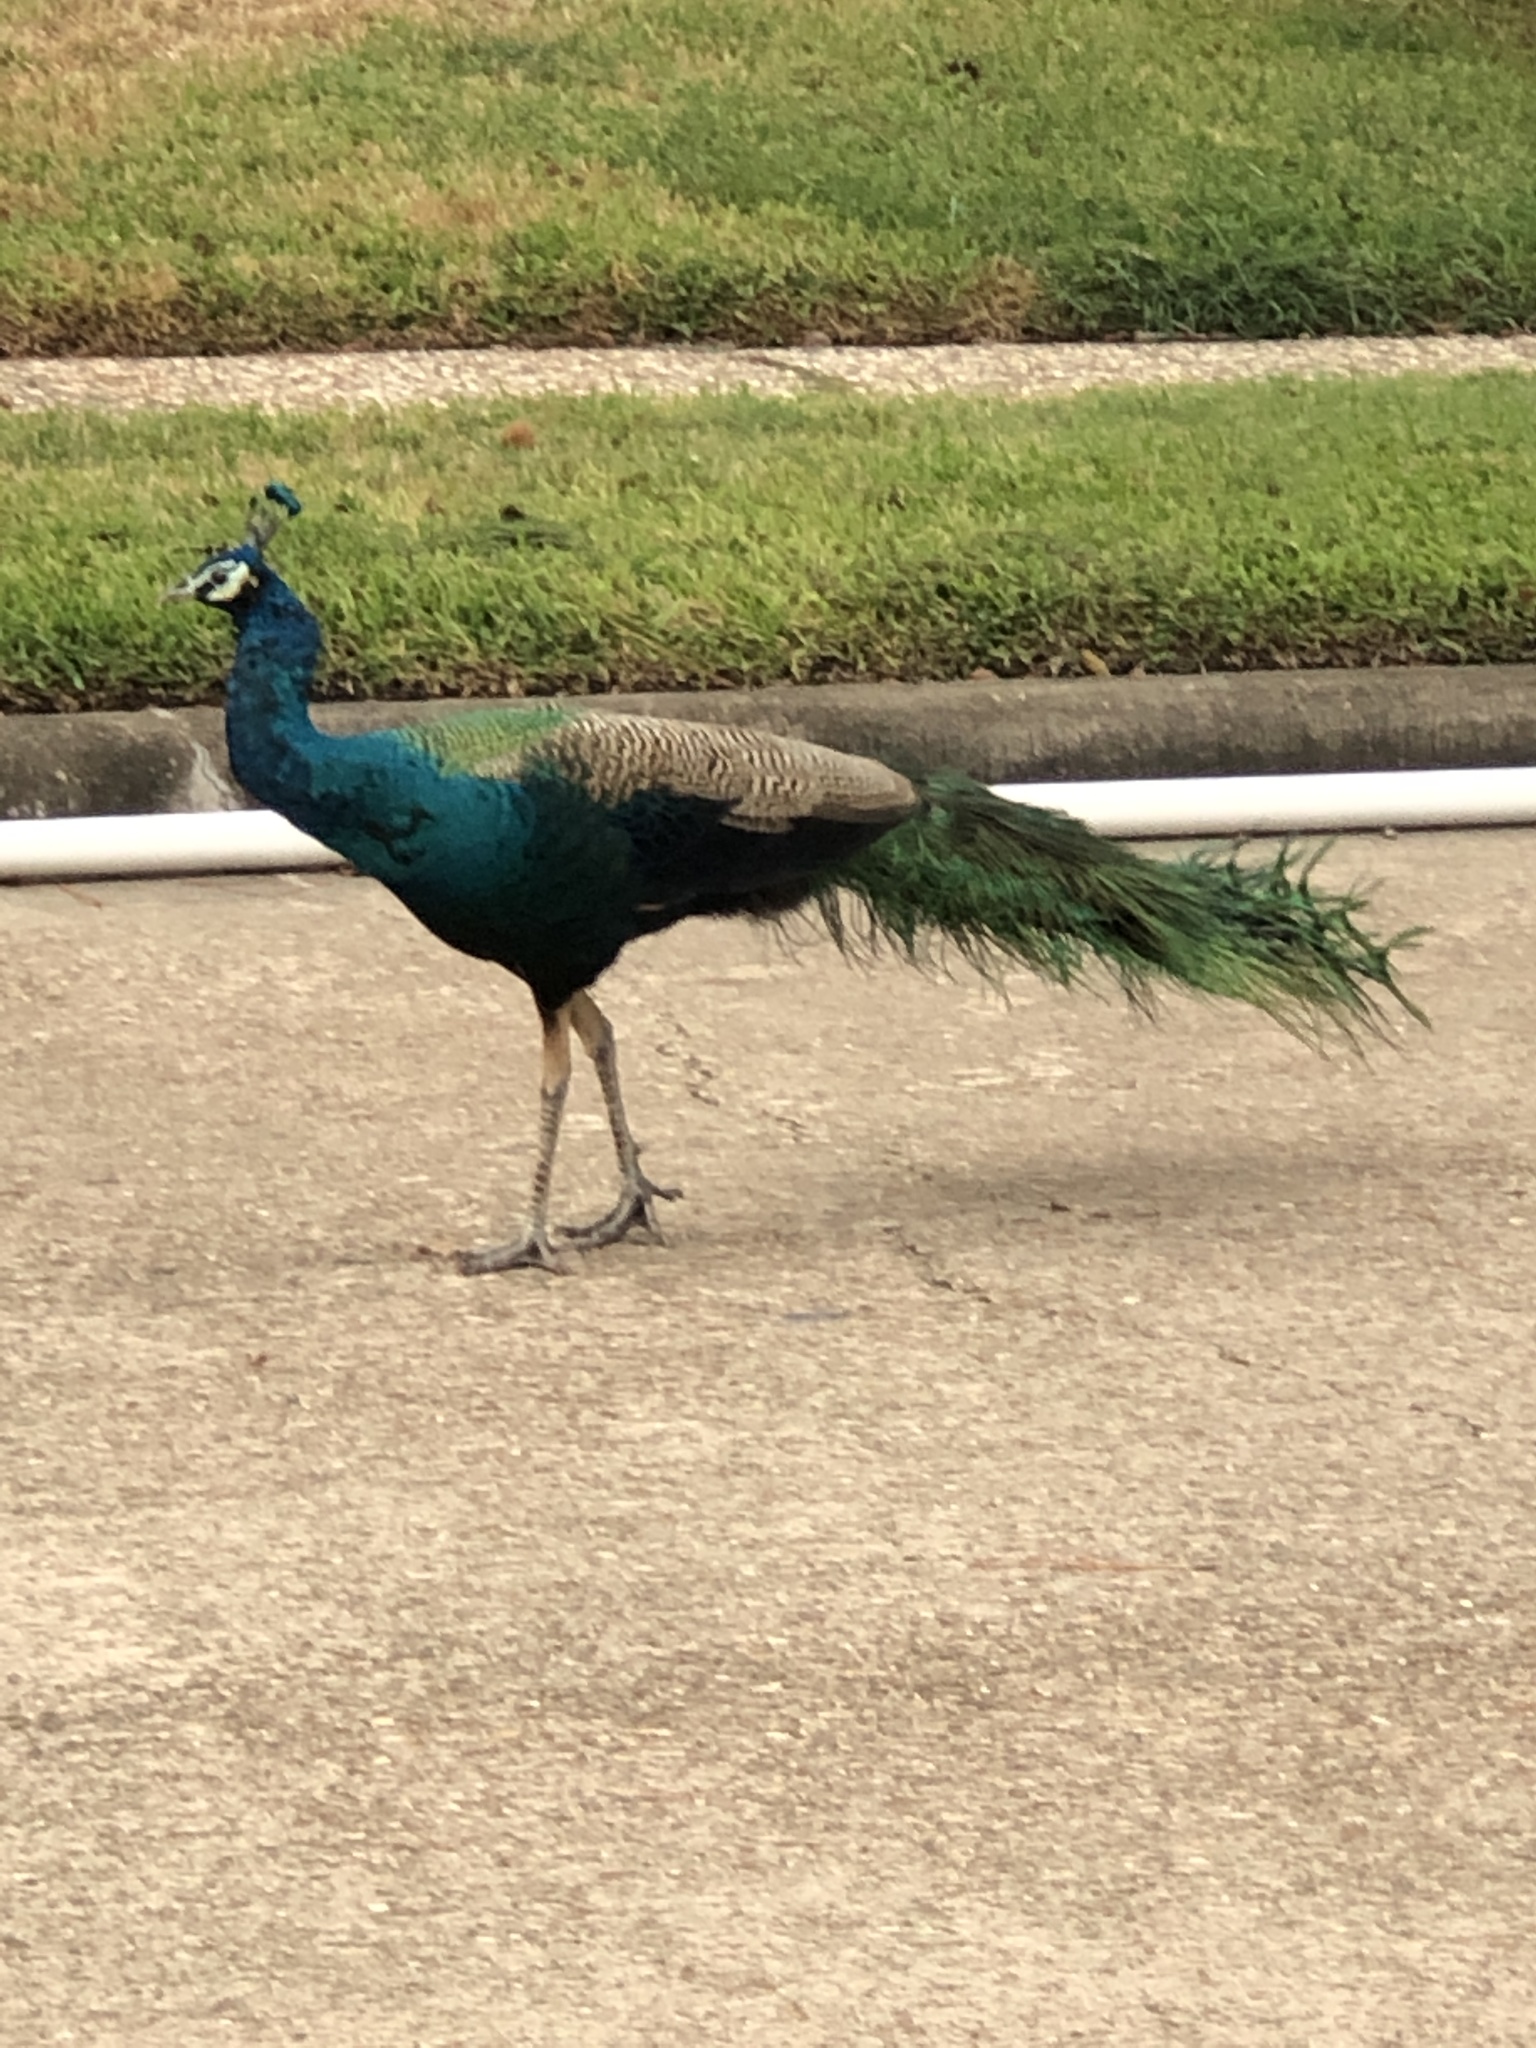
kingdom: Animalia
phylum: Chordata
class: Aves
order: Galliformes
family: Phasianidae
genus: Pavo
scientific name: Pavo cristatus
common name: Indian peafowl
